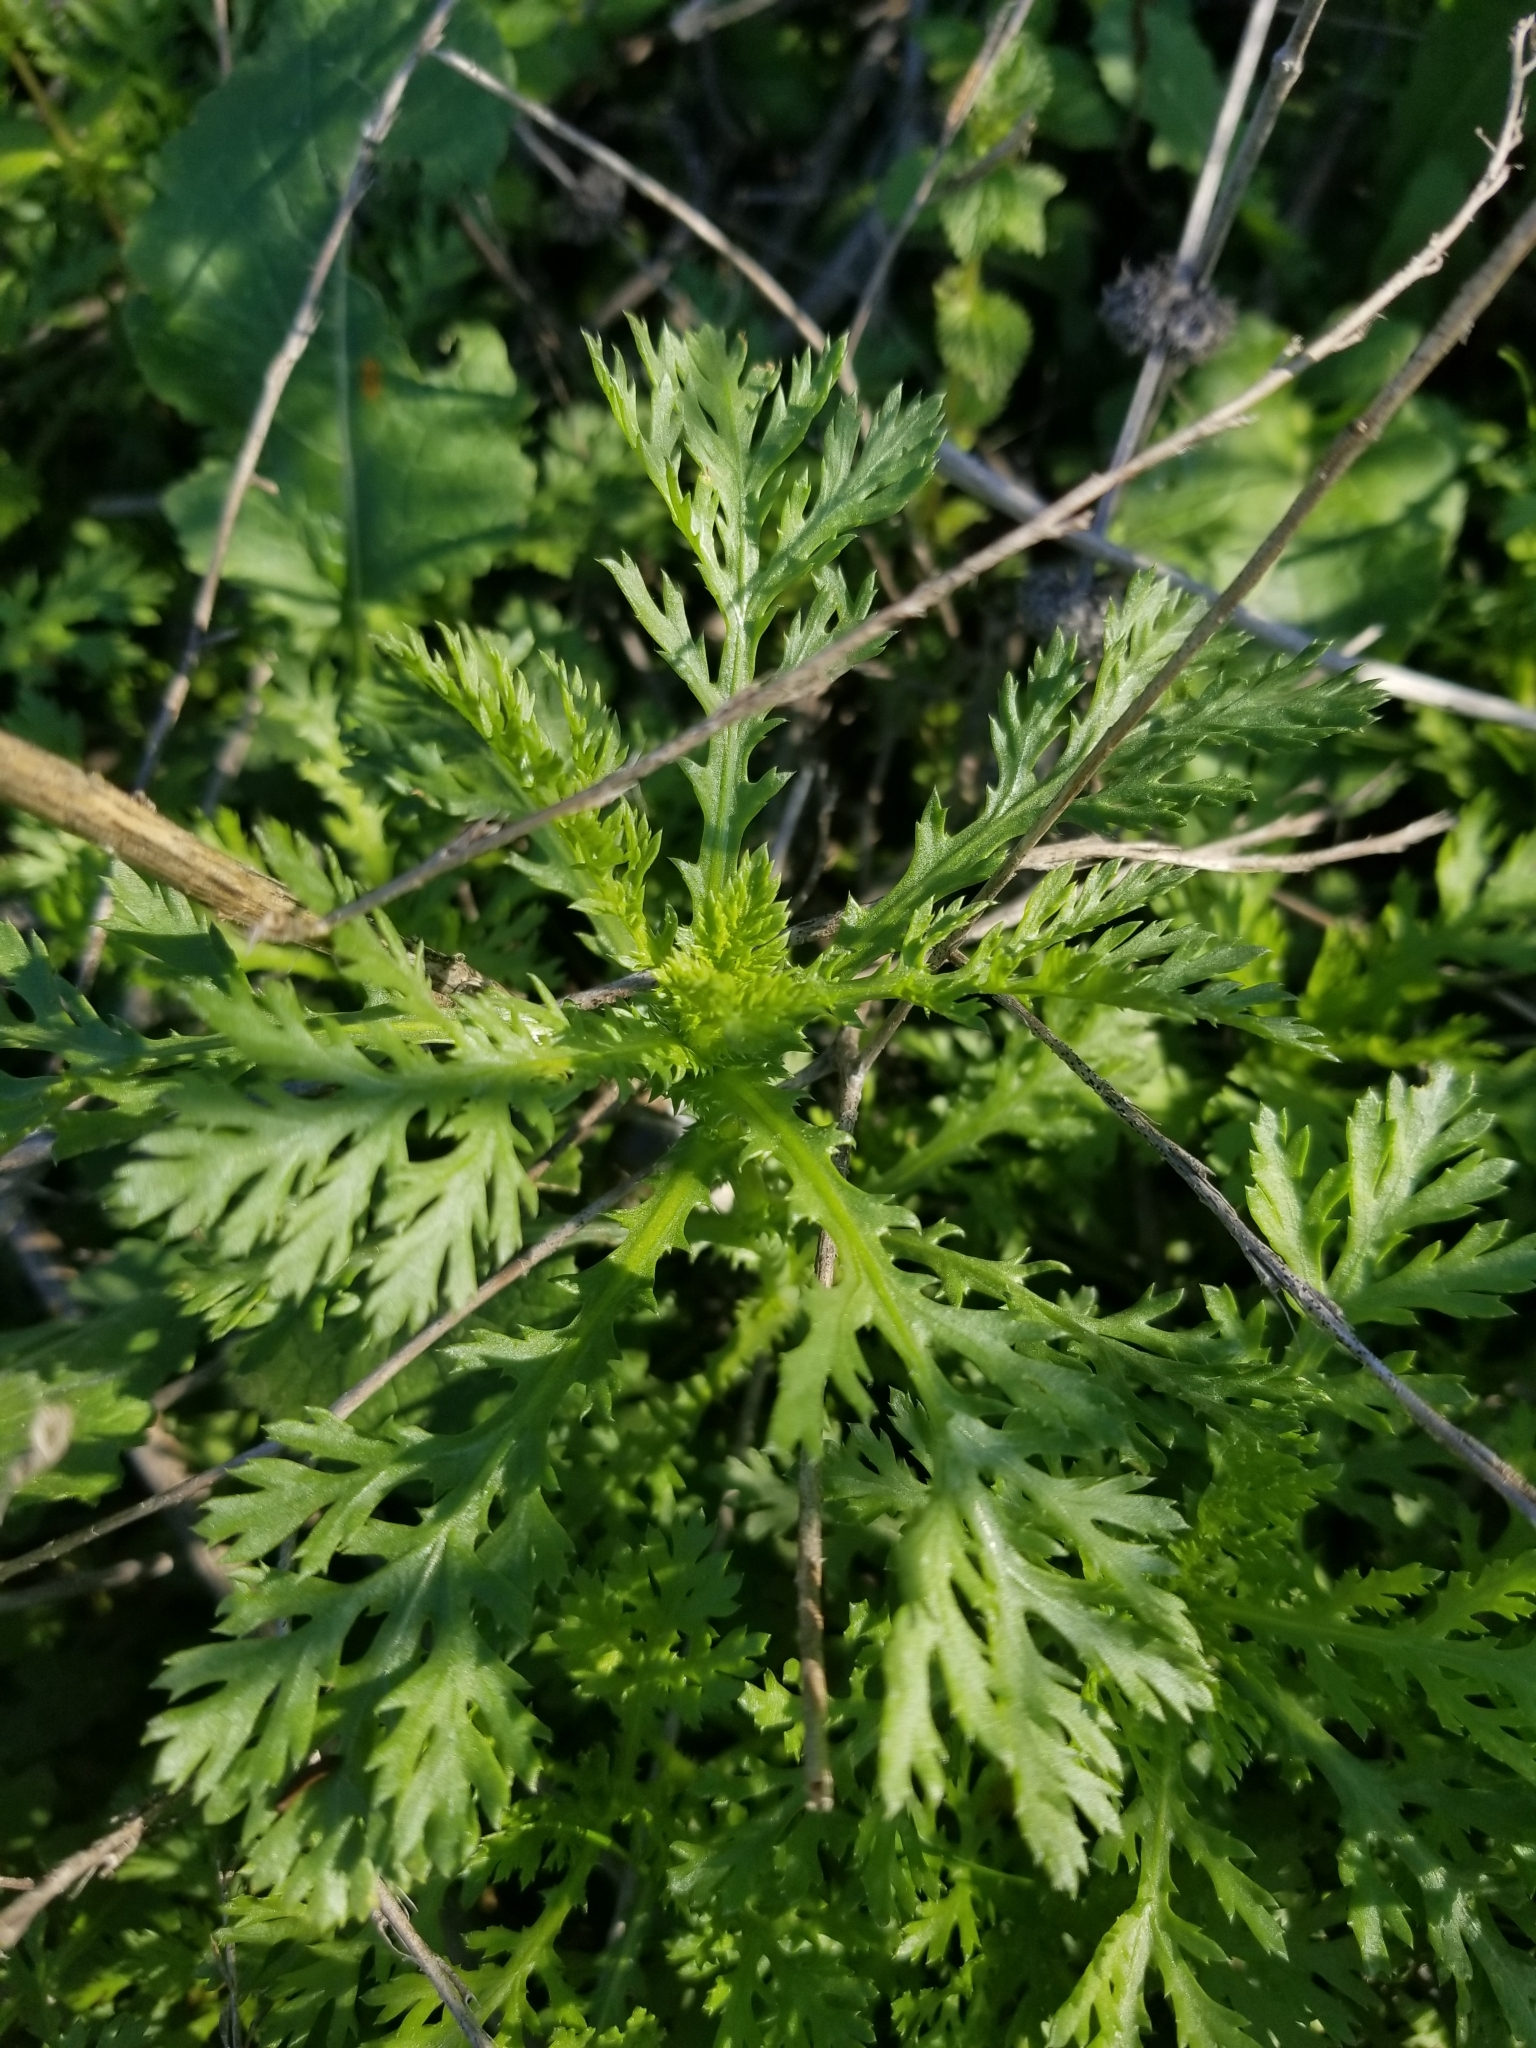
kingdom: Plantae
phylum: Tracheophyta
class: Magnoliopsida
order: Asterales
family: Asteraceae
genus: Glebionis
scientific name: Glebionis coronaria
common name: Crowndaisy
